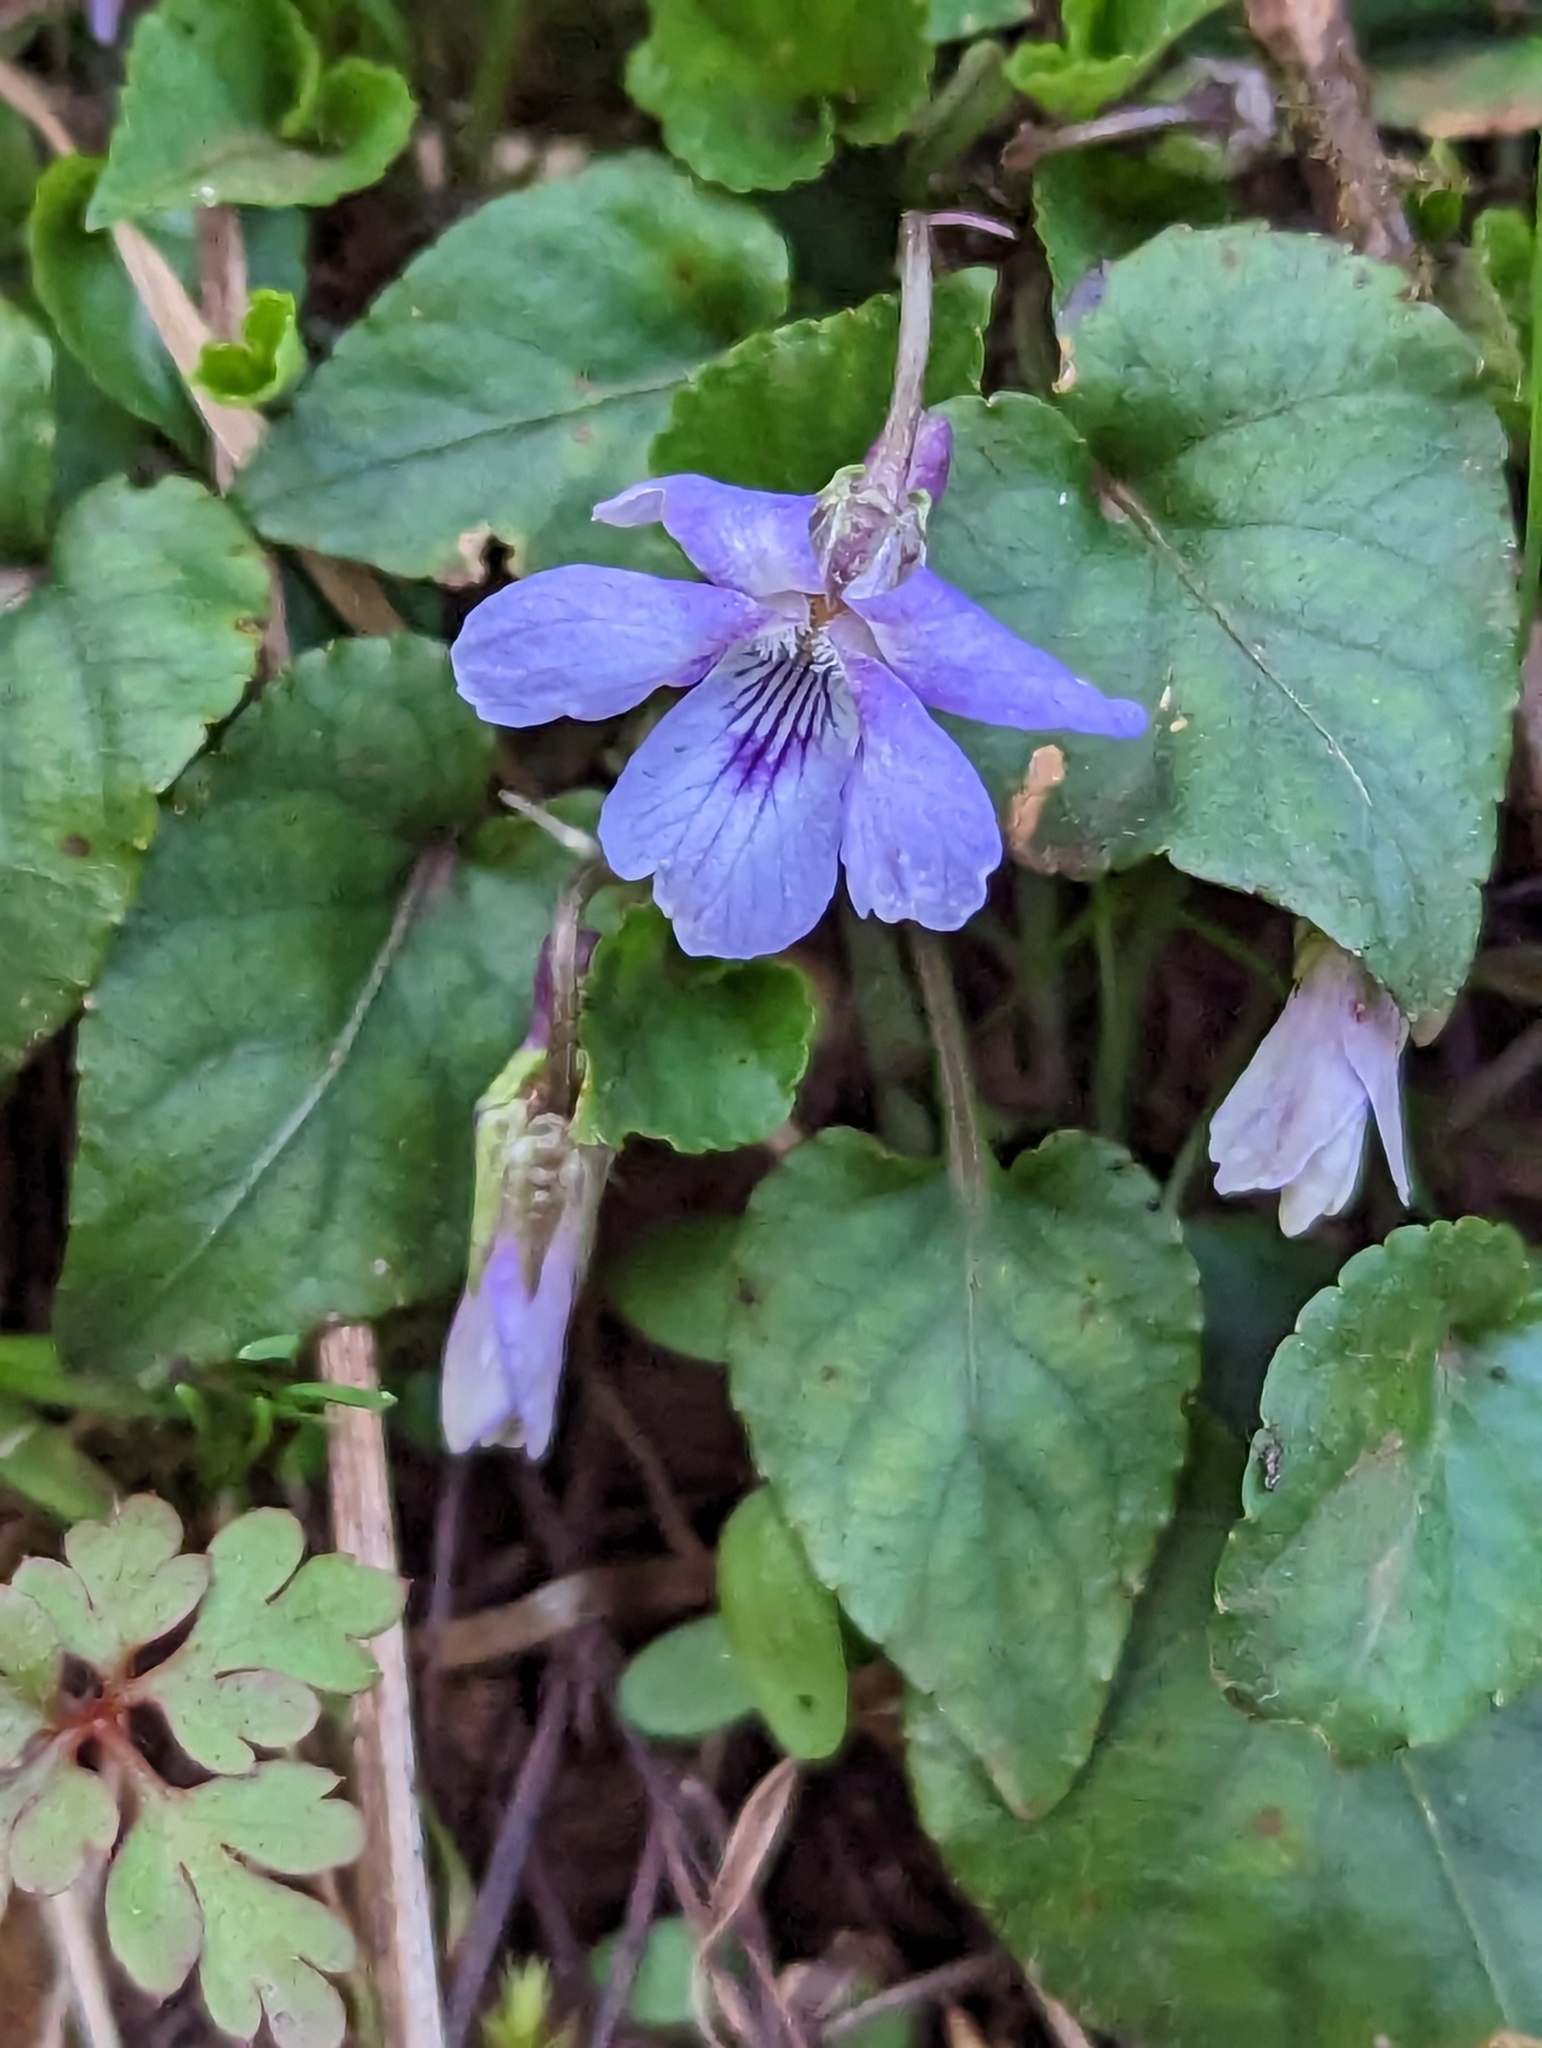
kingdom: Plantae
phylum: Tracheophyta
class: Magnoliopsida
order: Malpighiales
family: Violaceae
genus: Viola
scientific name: Viola reichenbachiana
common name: Early dog-violet
